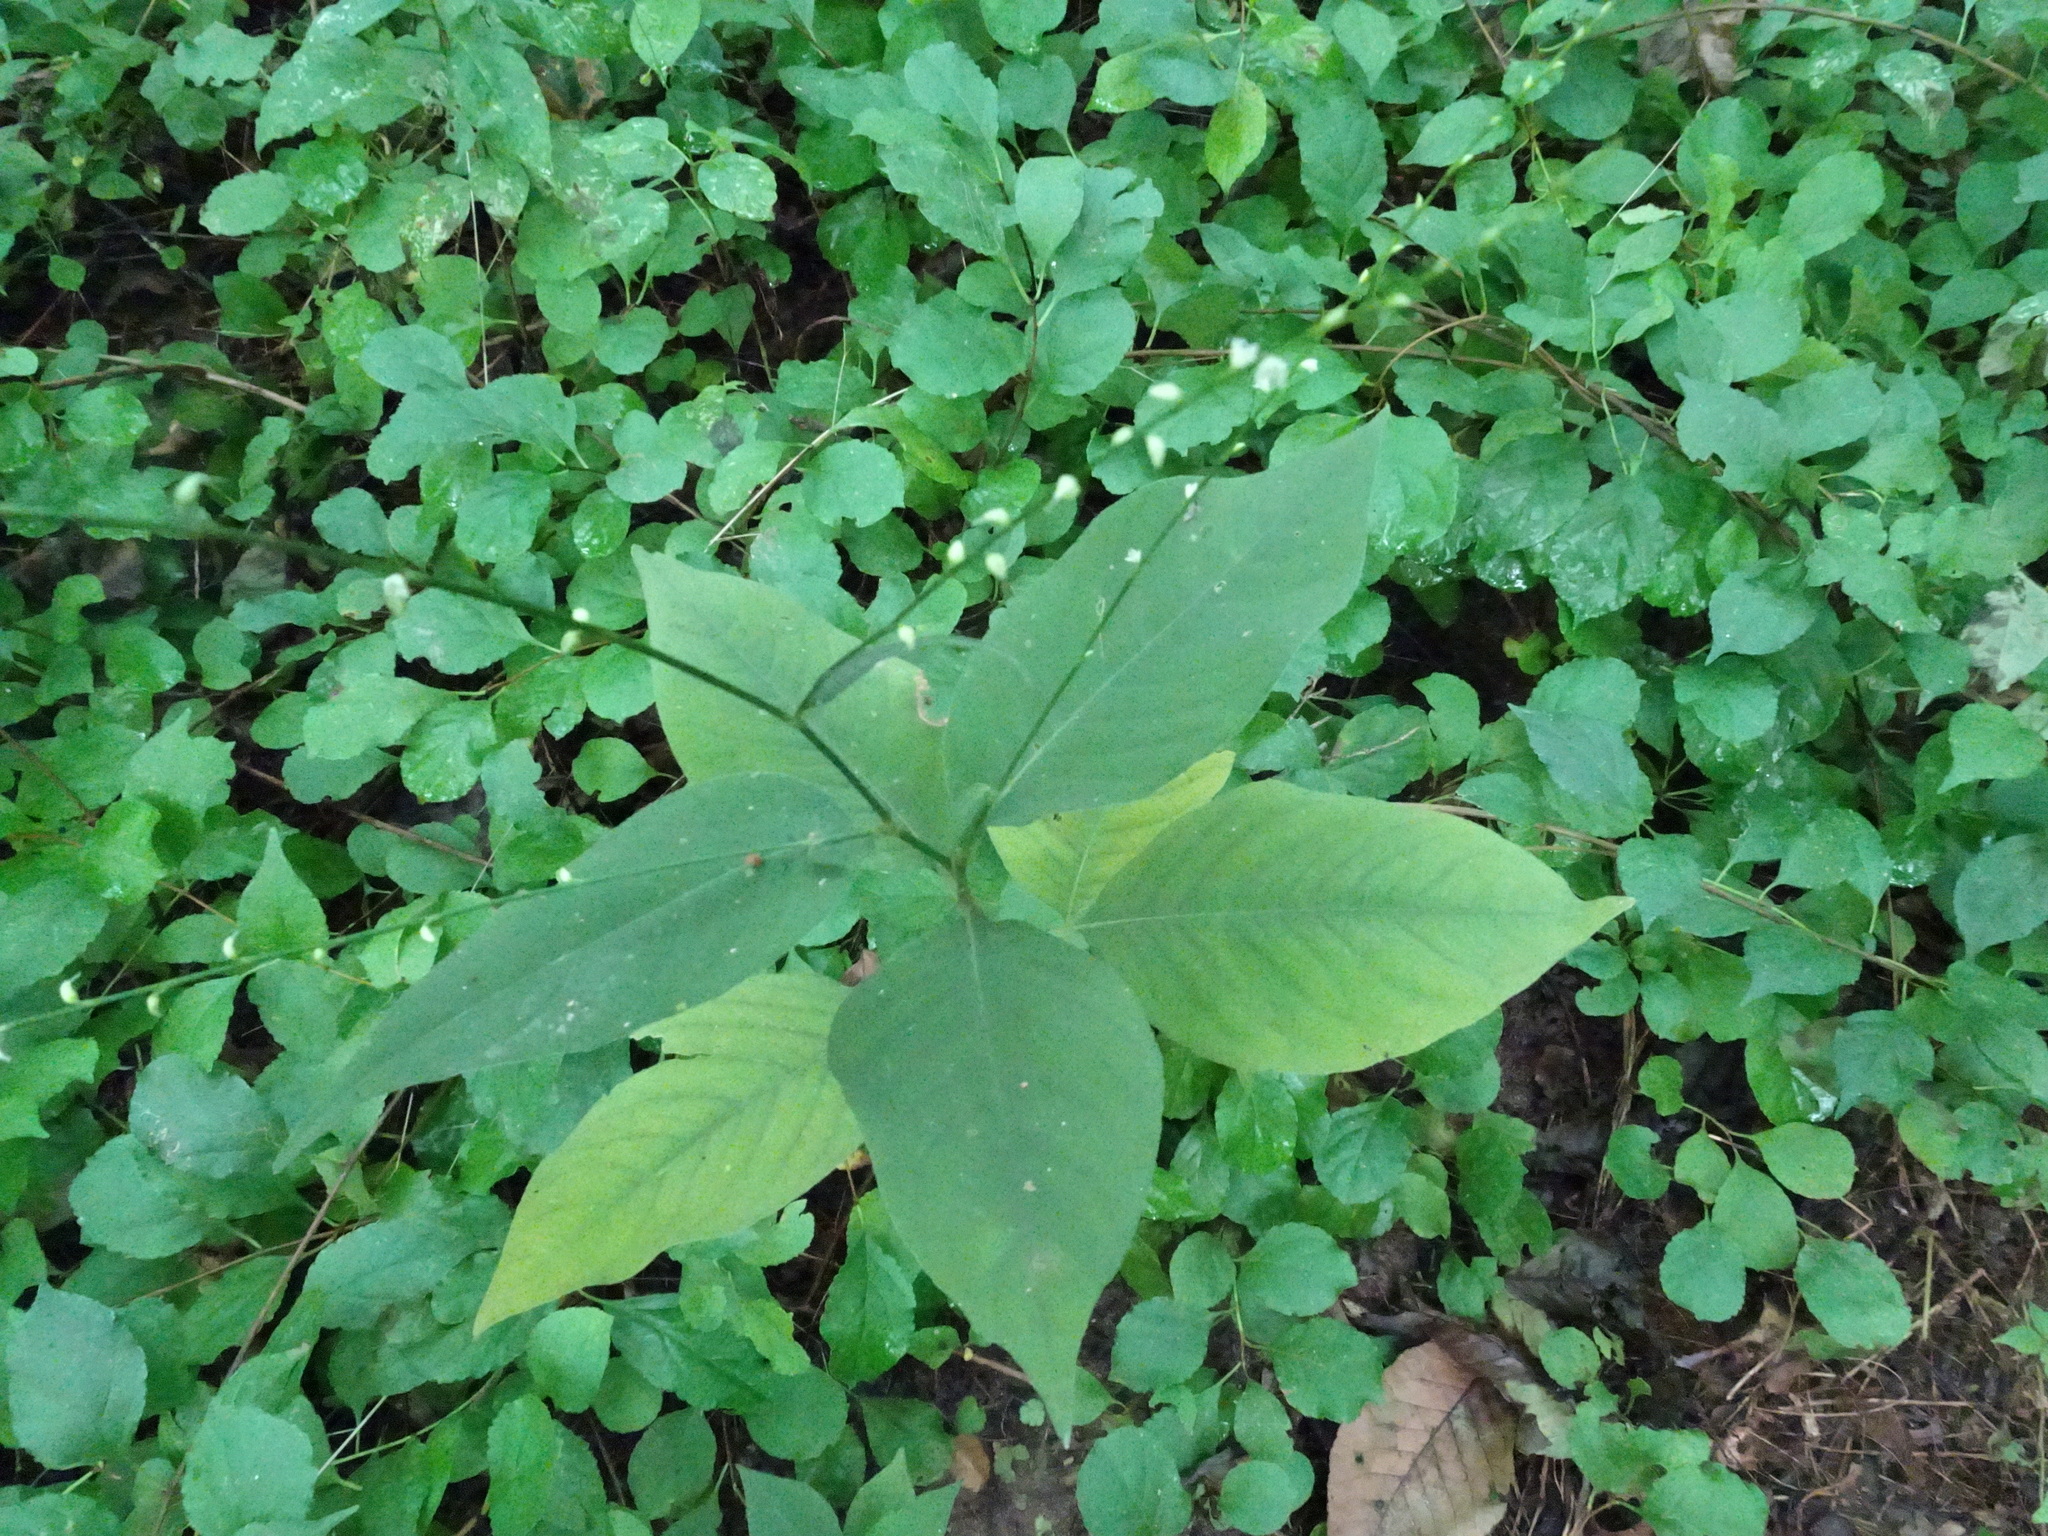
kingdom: Plantae
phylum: Tracheophyta
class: Magnoliopsida
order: Caryophyllales
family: Polygonaceae
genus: Persicaria
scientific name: Persicaria virginiana
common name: Jumpseed
